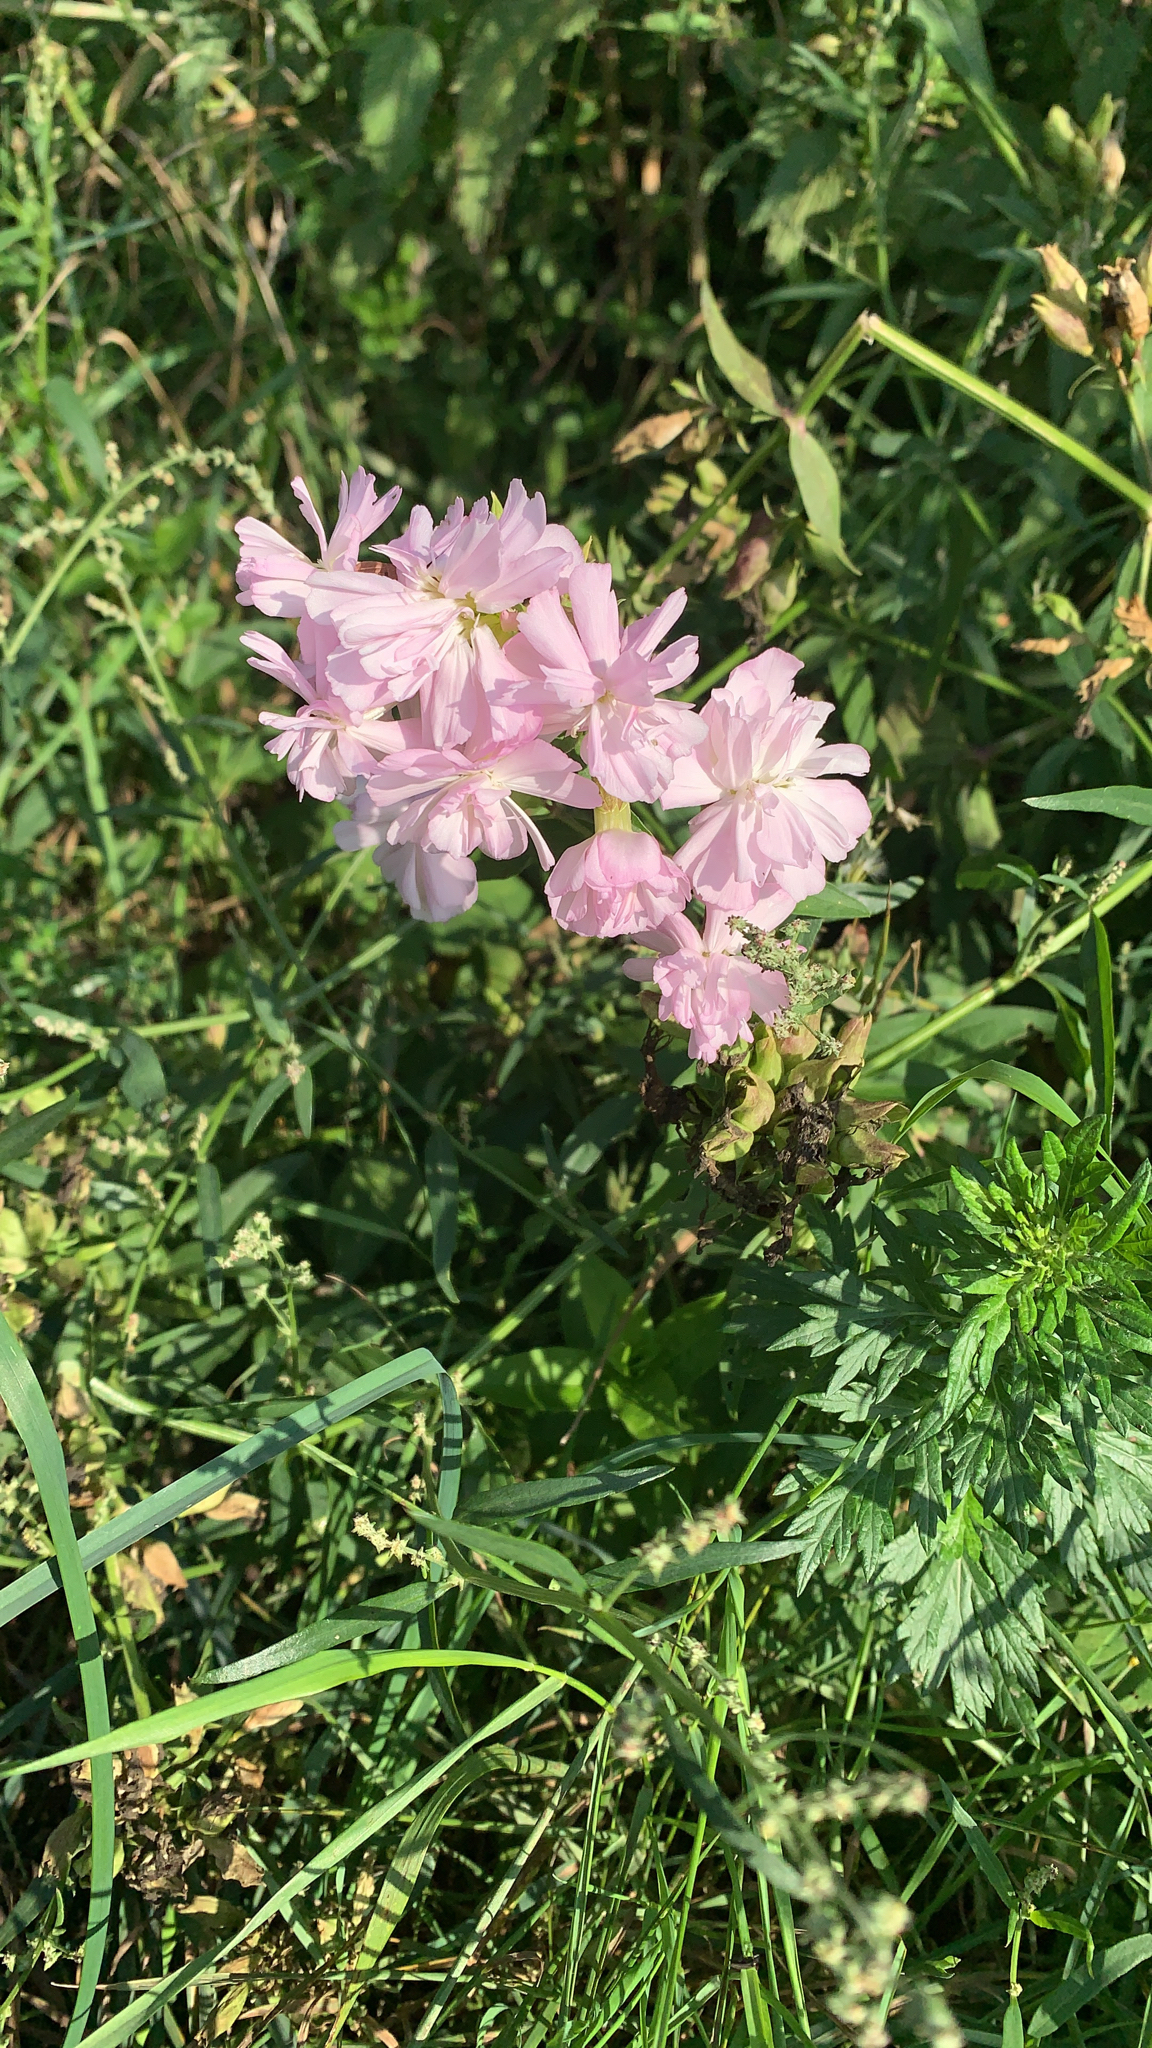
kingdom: Plantae
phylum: Tracheophyta
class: Magnoliopsida
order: Caryophyllales
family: Caryophyllaceae
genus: Saponaria
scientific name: Saponaria officinalis
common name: Soapwort
